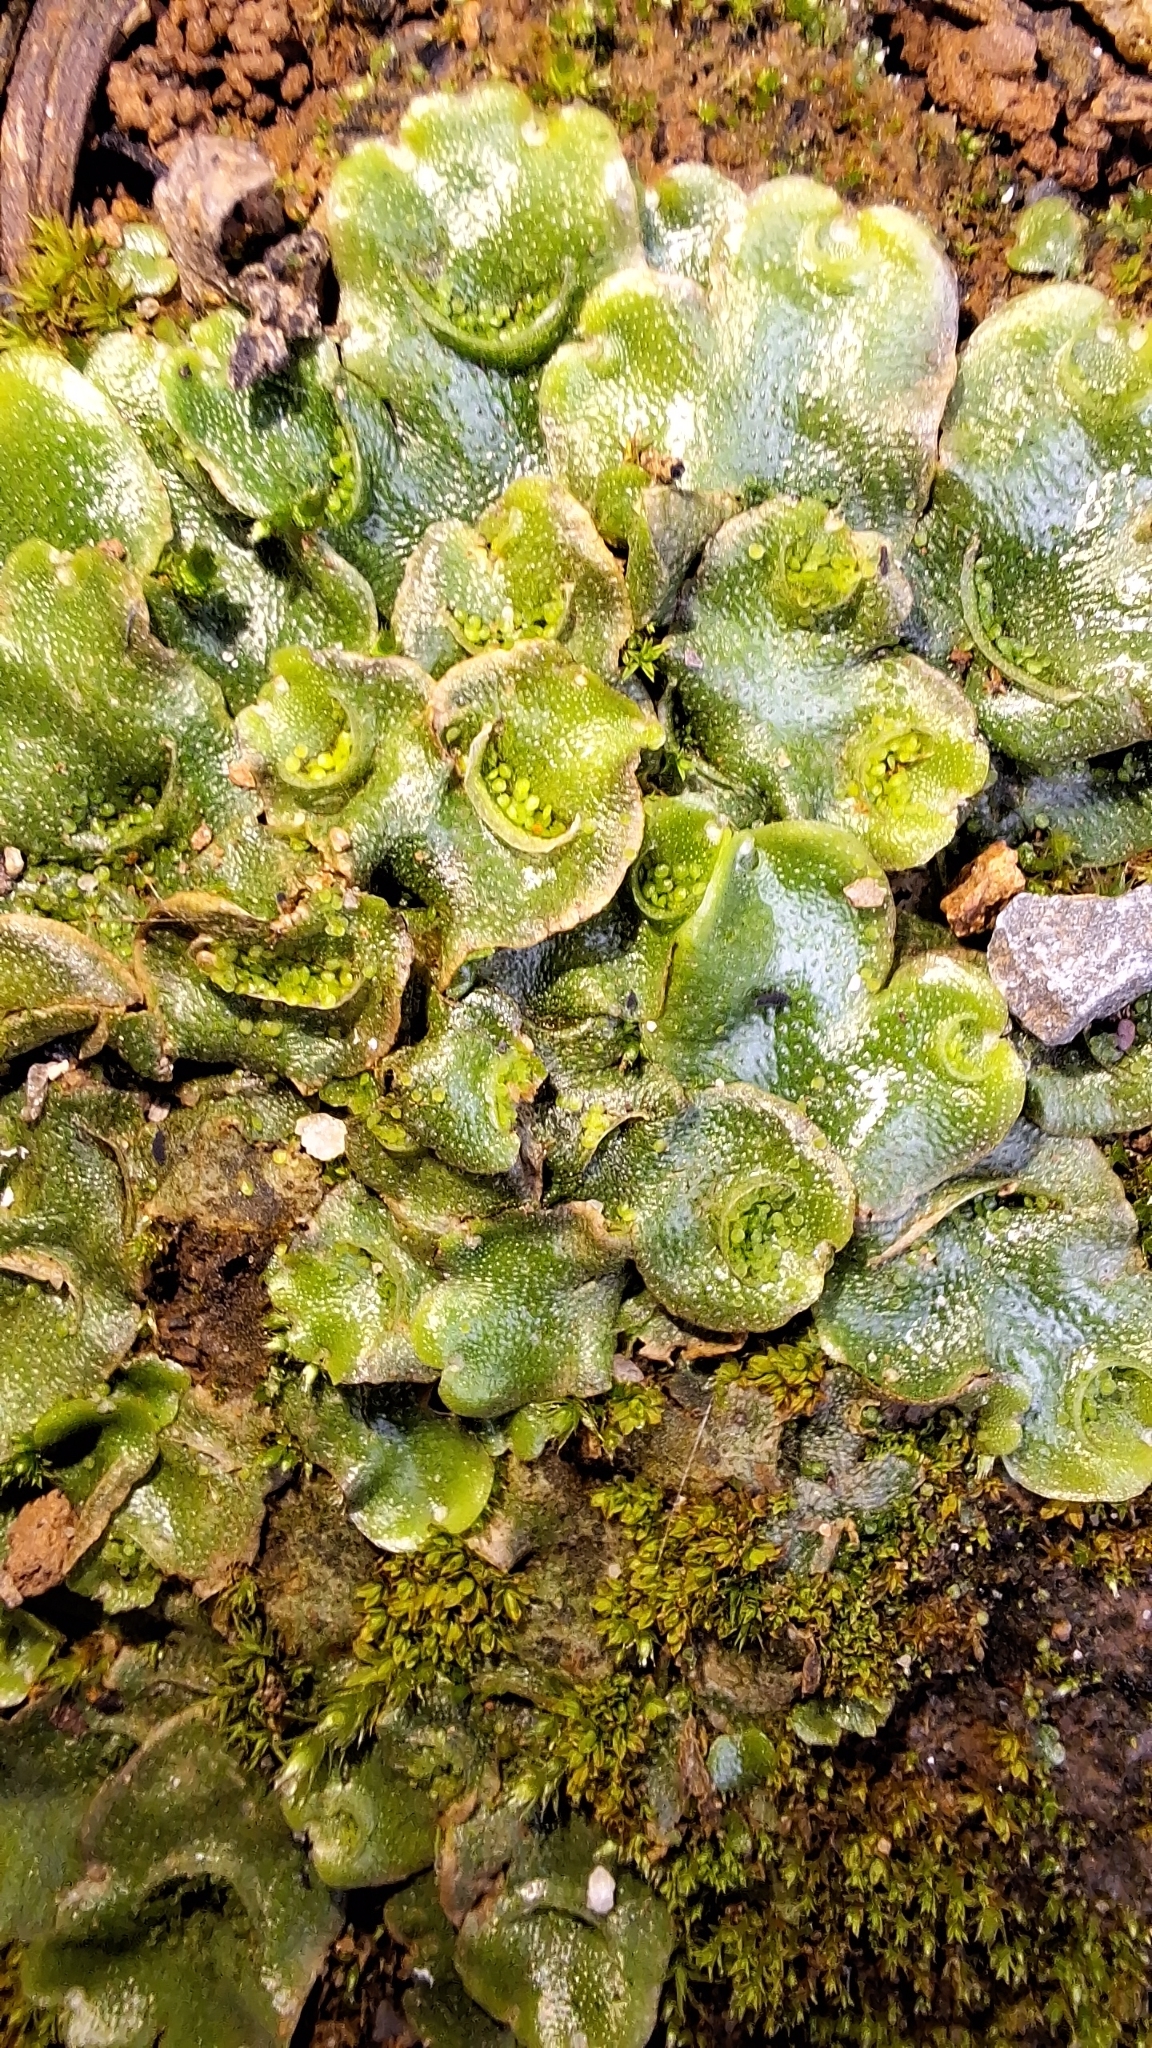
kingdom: Plantae
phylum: Marchantiophyta
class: Marchantiopsida
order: Lunulariales
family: Lunulariaceae
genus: Lunularia
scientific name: Lunularia cruciata
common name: Crescent-cup liverwort
